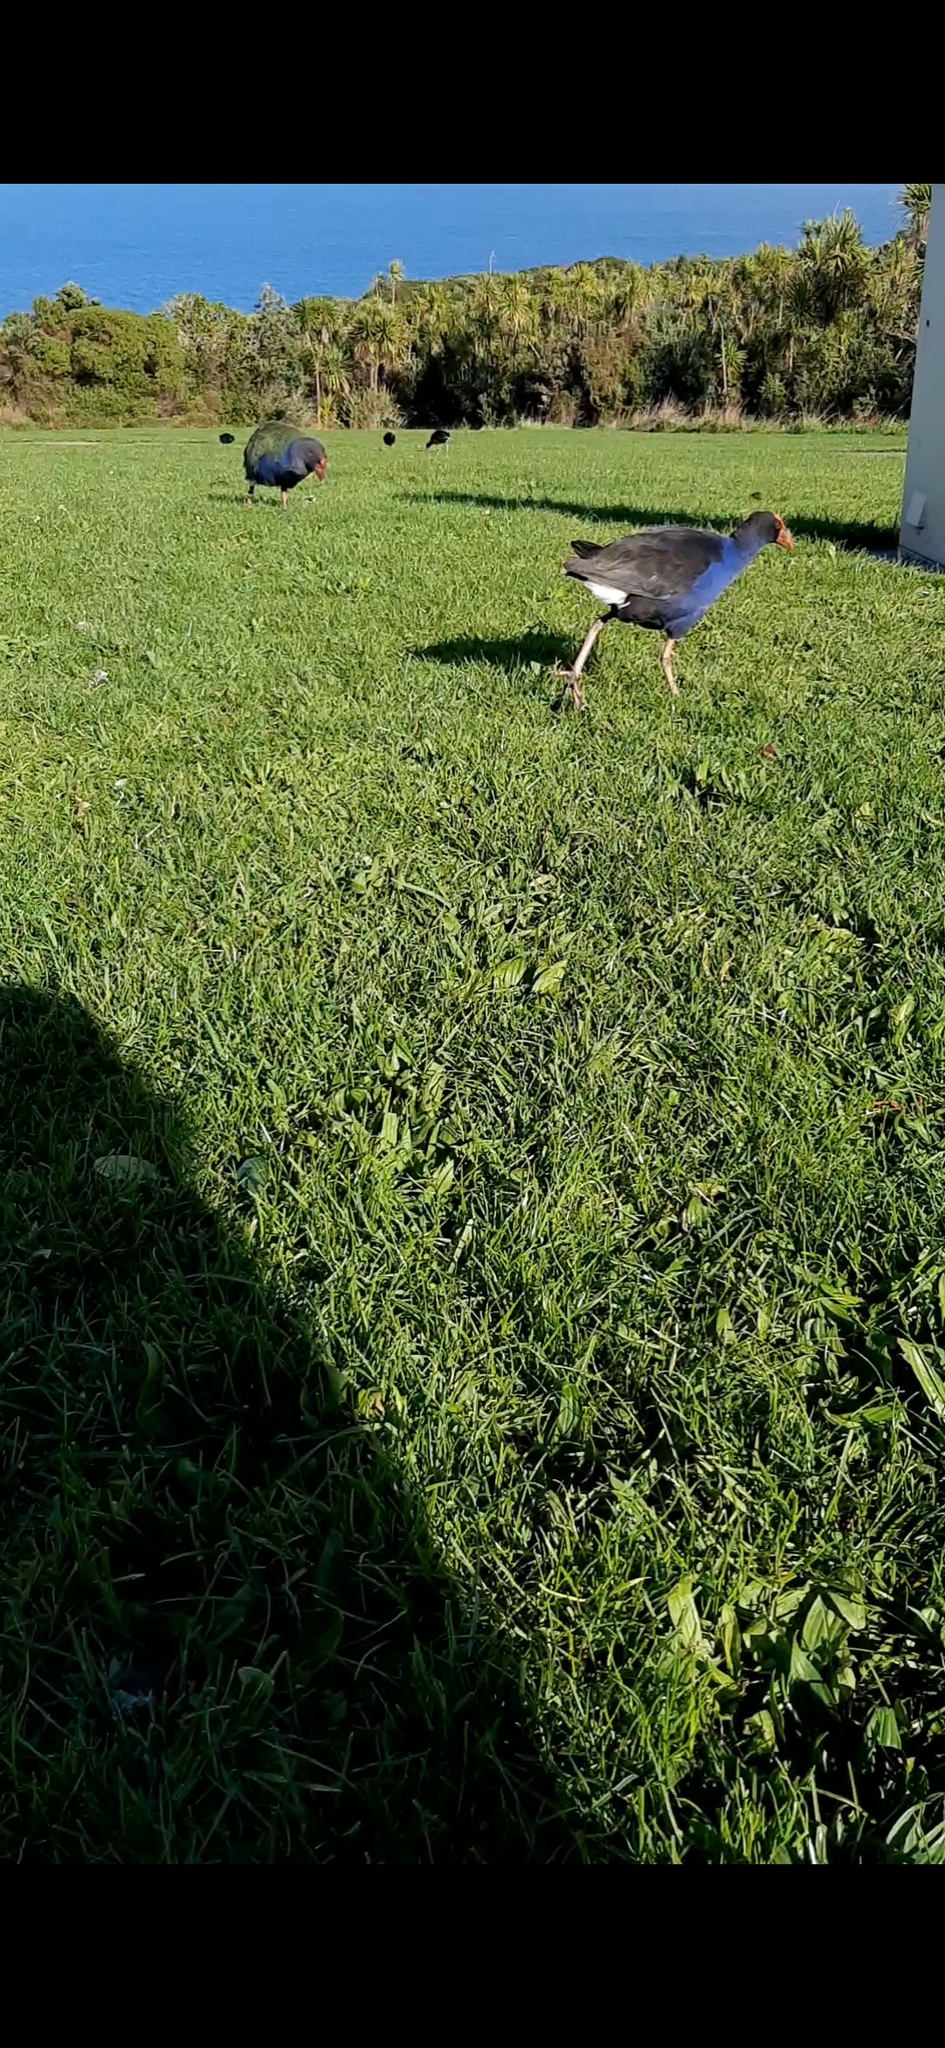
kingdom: Animalia
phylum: Chordata
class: Aves
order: Gruiformes
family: Rallidae
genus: Porphyrio
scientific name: Porphyrio melanotus
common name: Australasian swamphen
